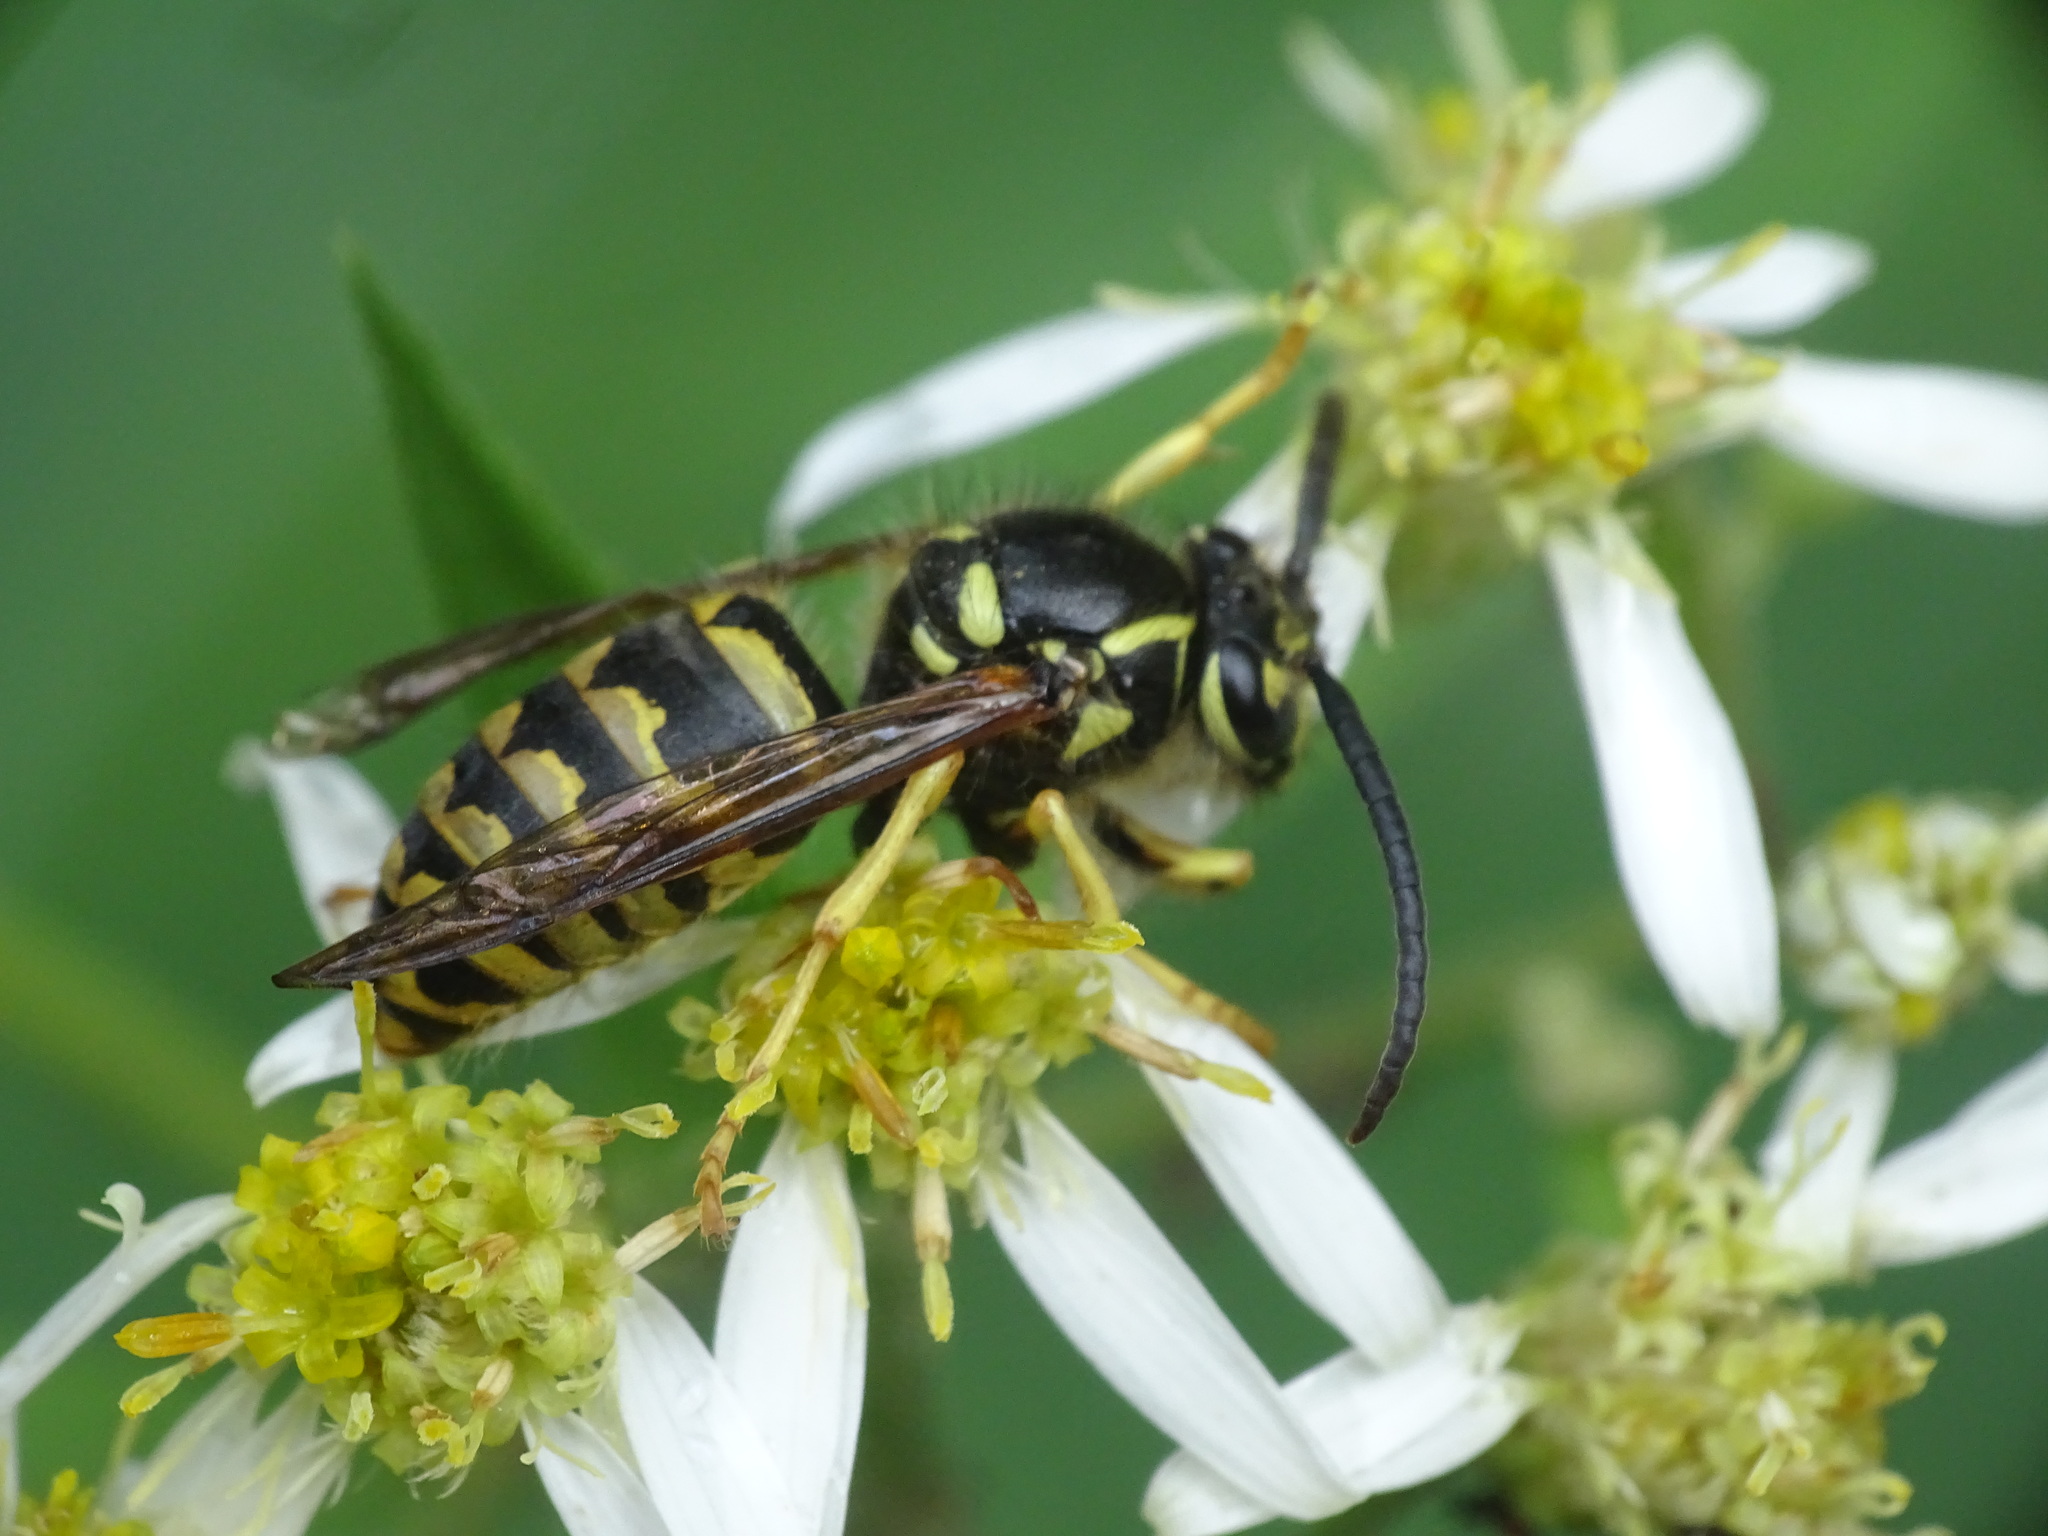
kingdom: Animalia
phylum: Arthropoda
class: Insecta
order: Hymenoptera
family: Vespidae
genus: Dolichovespula
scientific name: Dolichovespula arenaria
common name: Aerial yellowjacket
